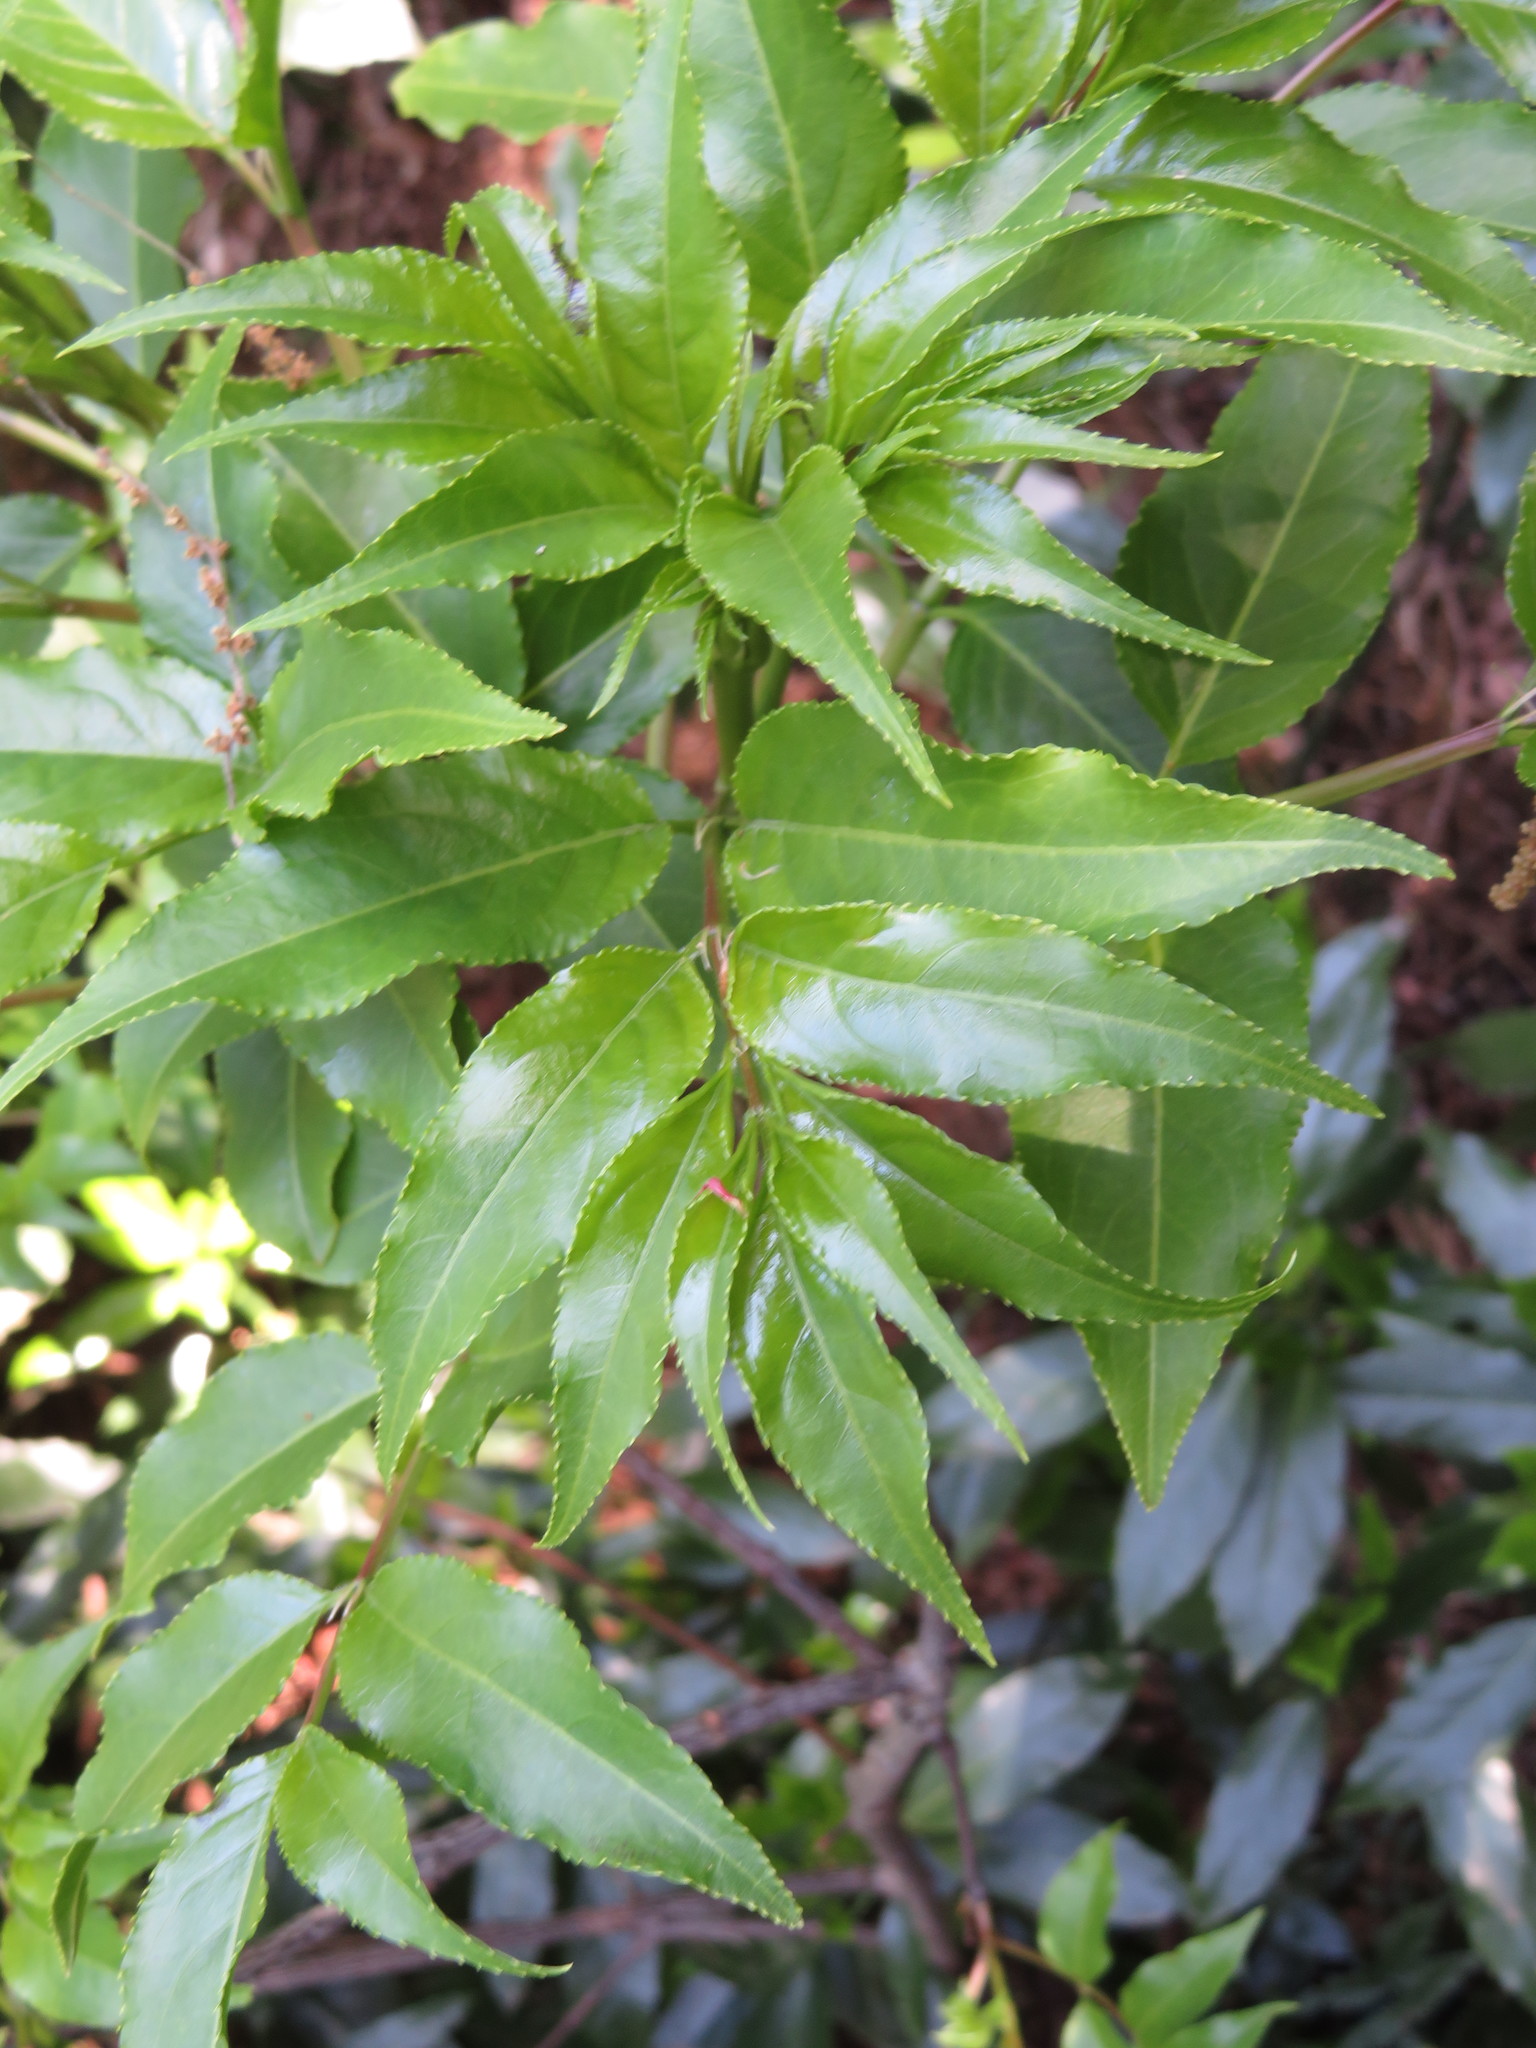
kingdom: Plantae
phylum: Tracheophyta
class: Magnoliopsida
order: Crossosomatales
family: Staphyleaceae
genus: Staphylea
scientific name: Staphylea japonica
